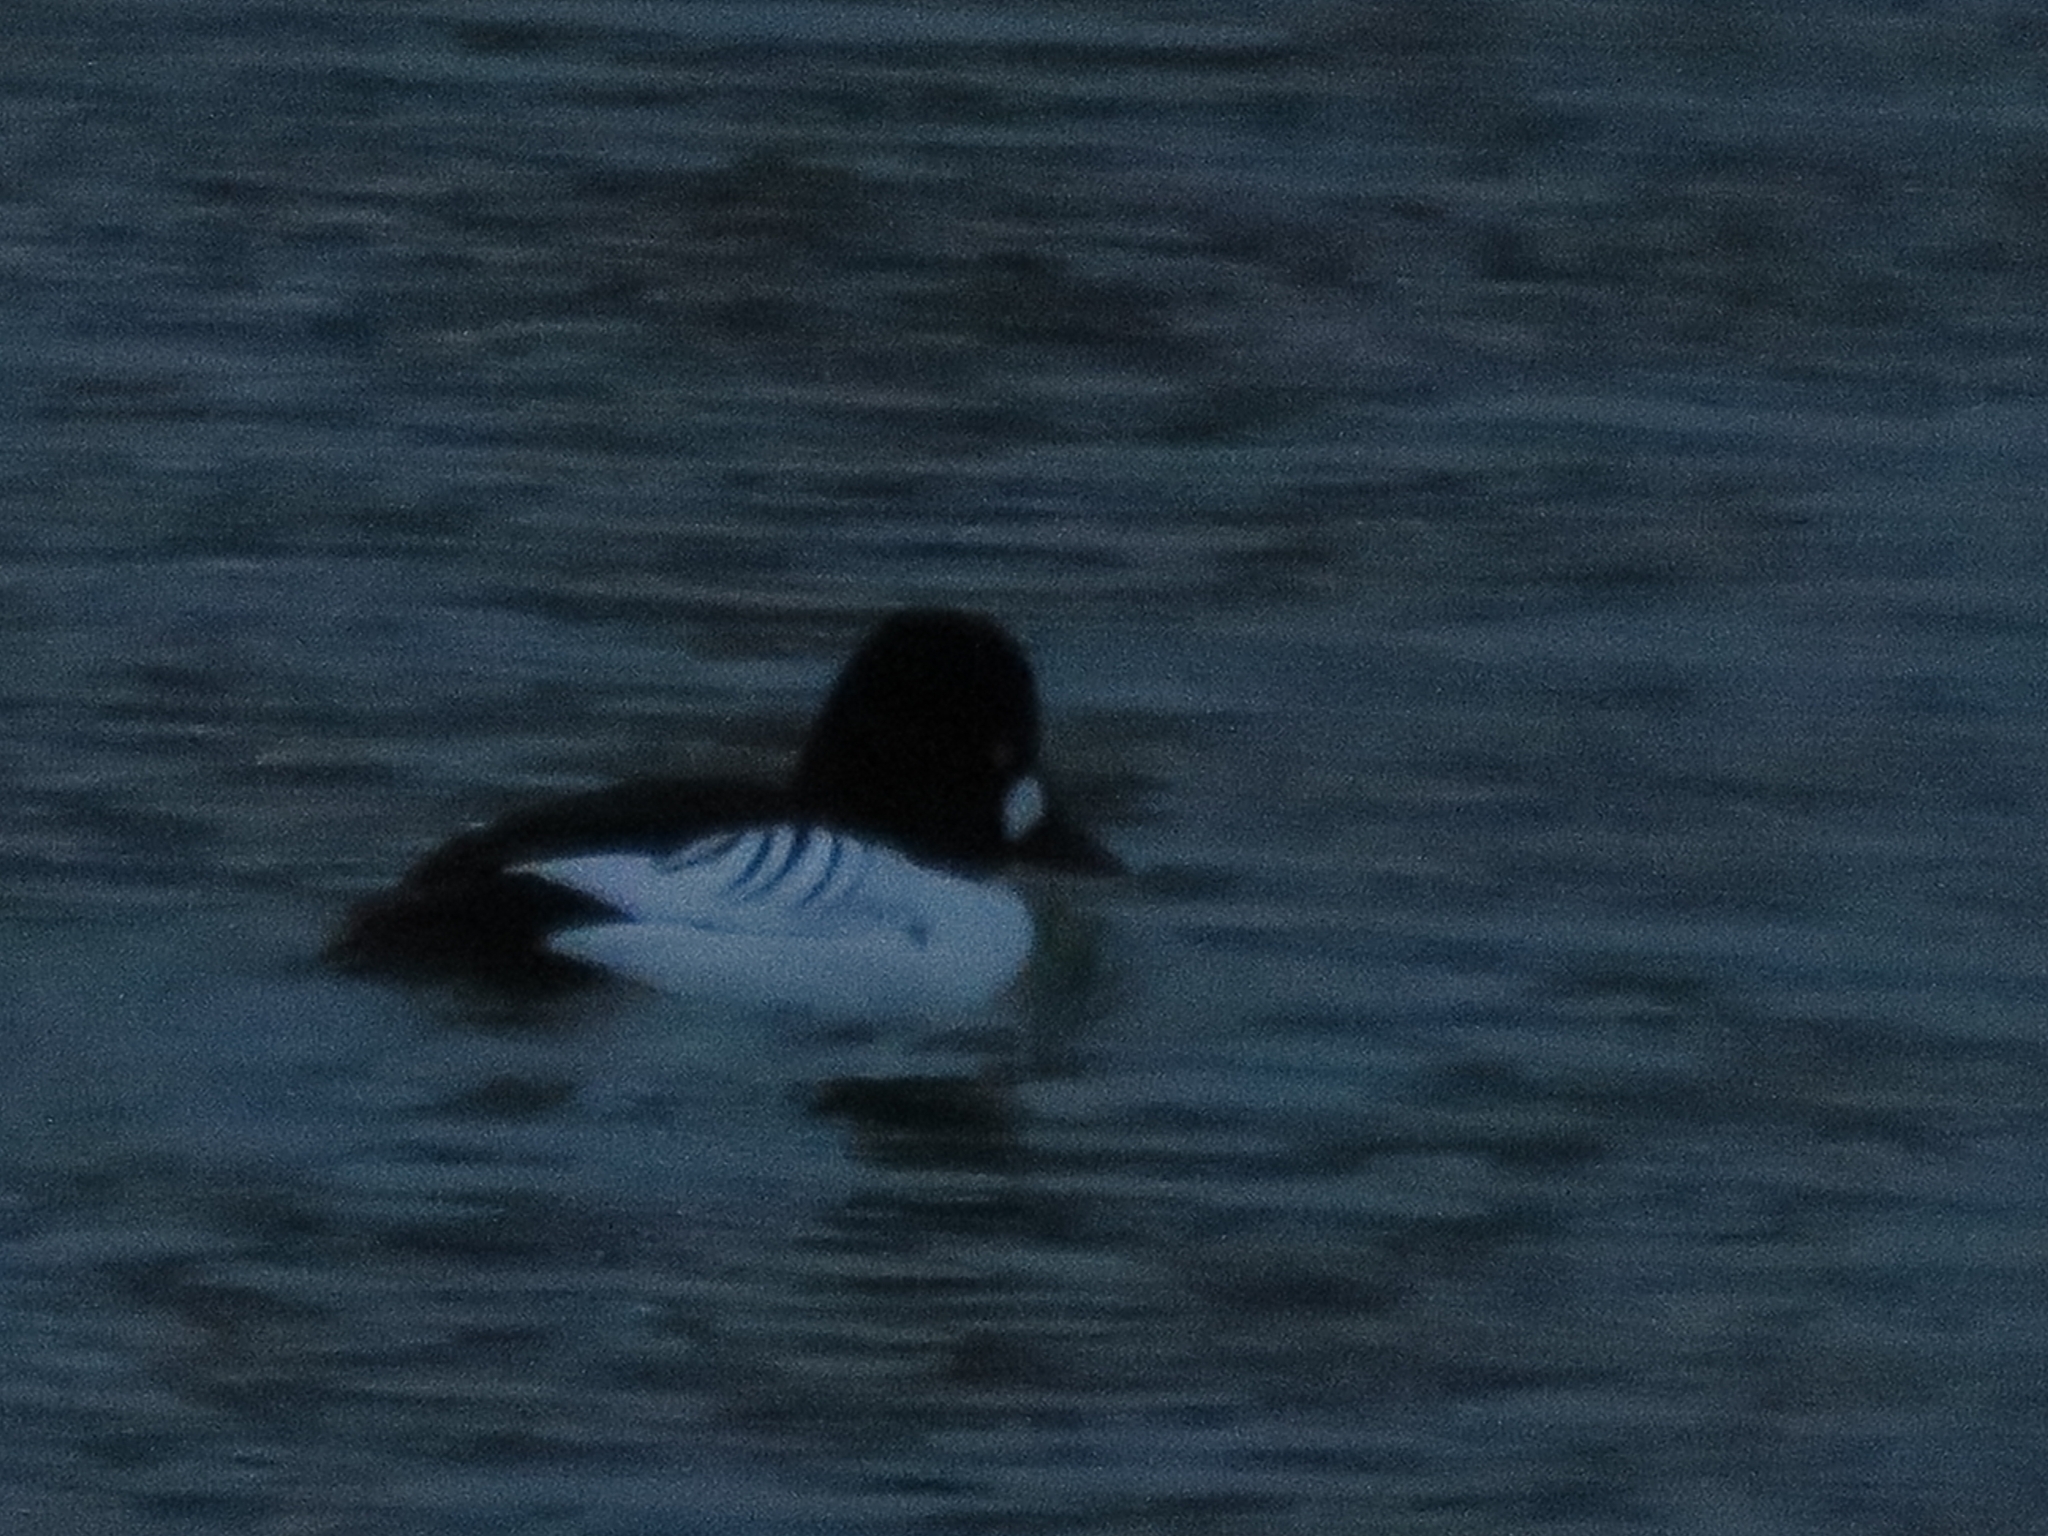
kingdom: Animalia
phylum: Chordata
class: Aves
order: Anseriformes
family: Anatidae
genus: Bucephala
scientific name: Bucephala clangula
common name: Common goldeneye
